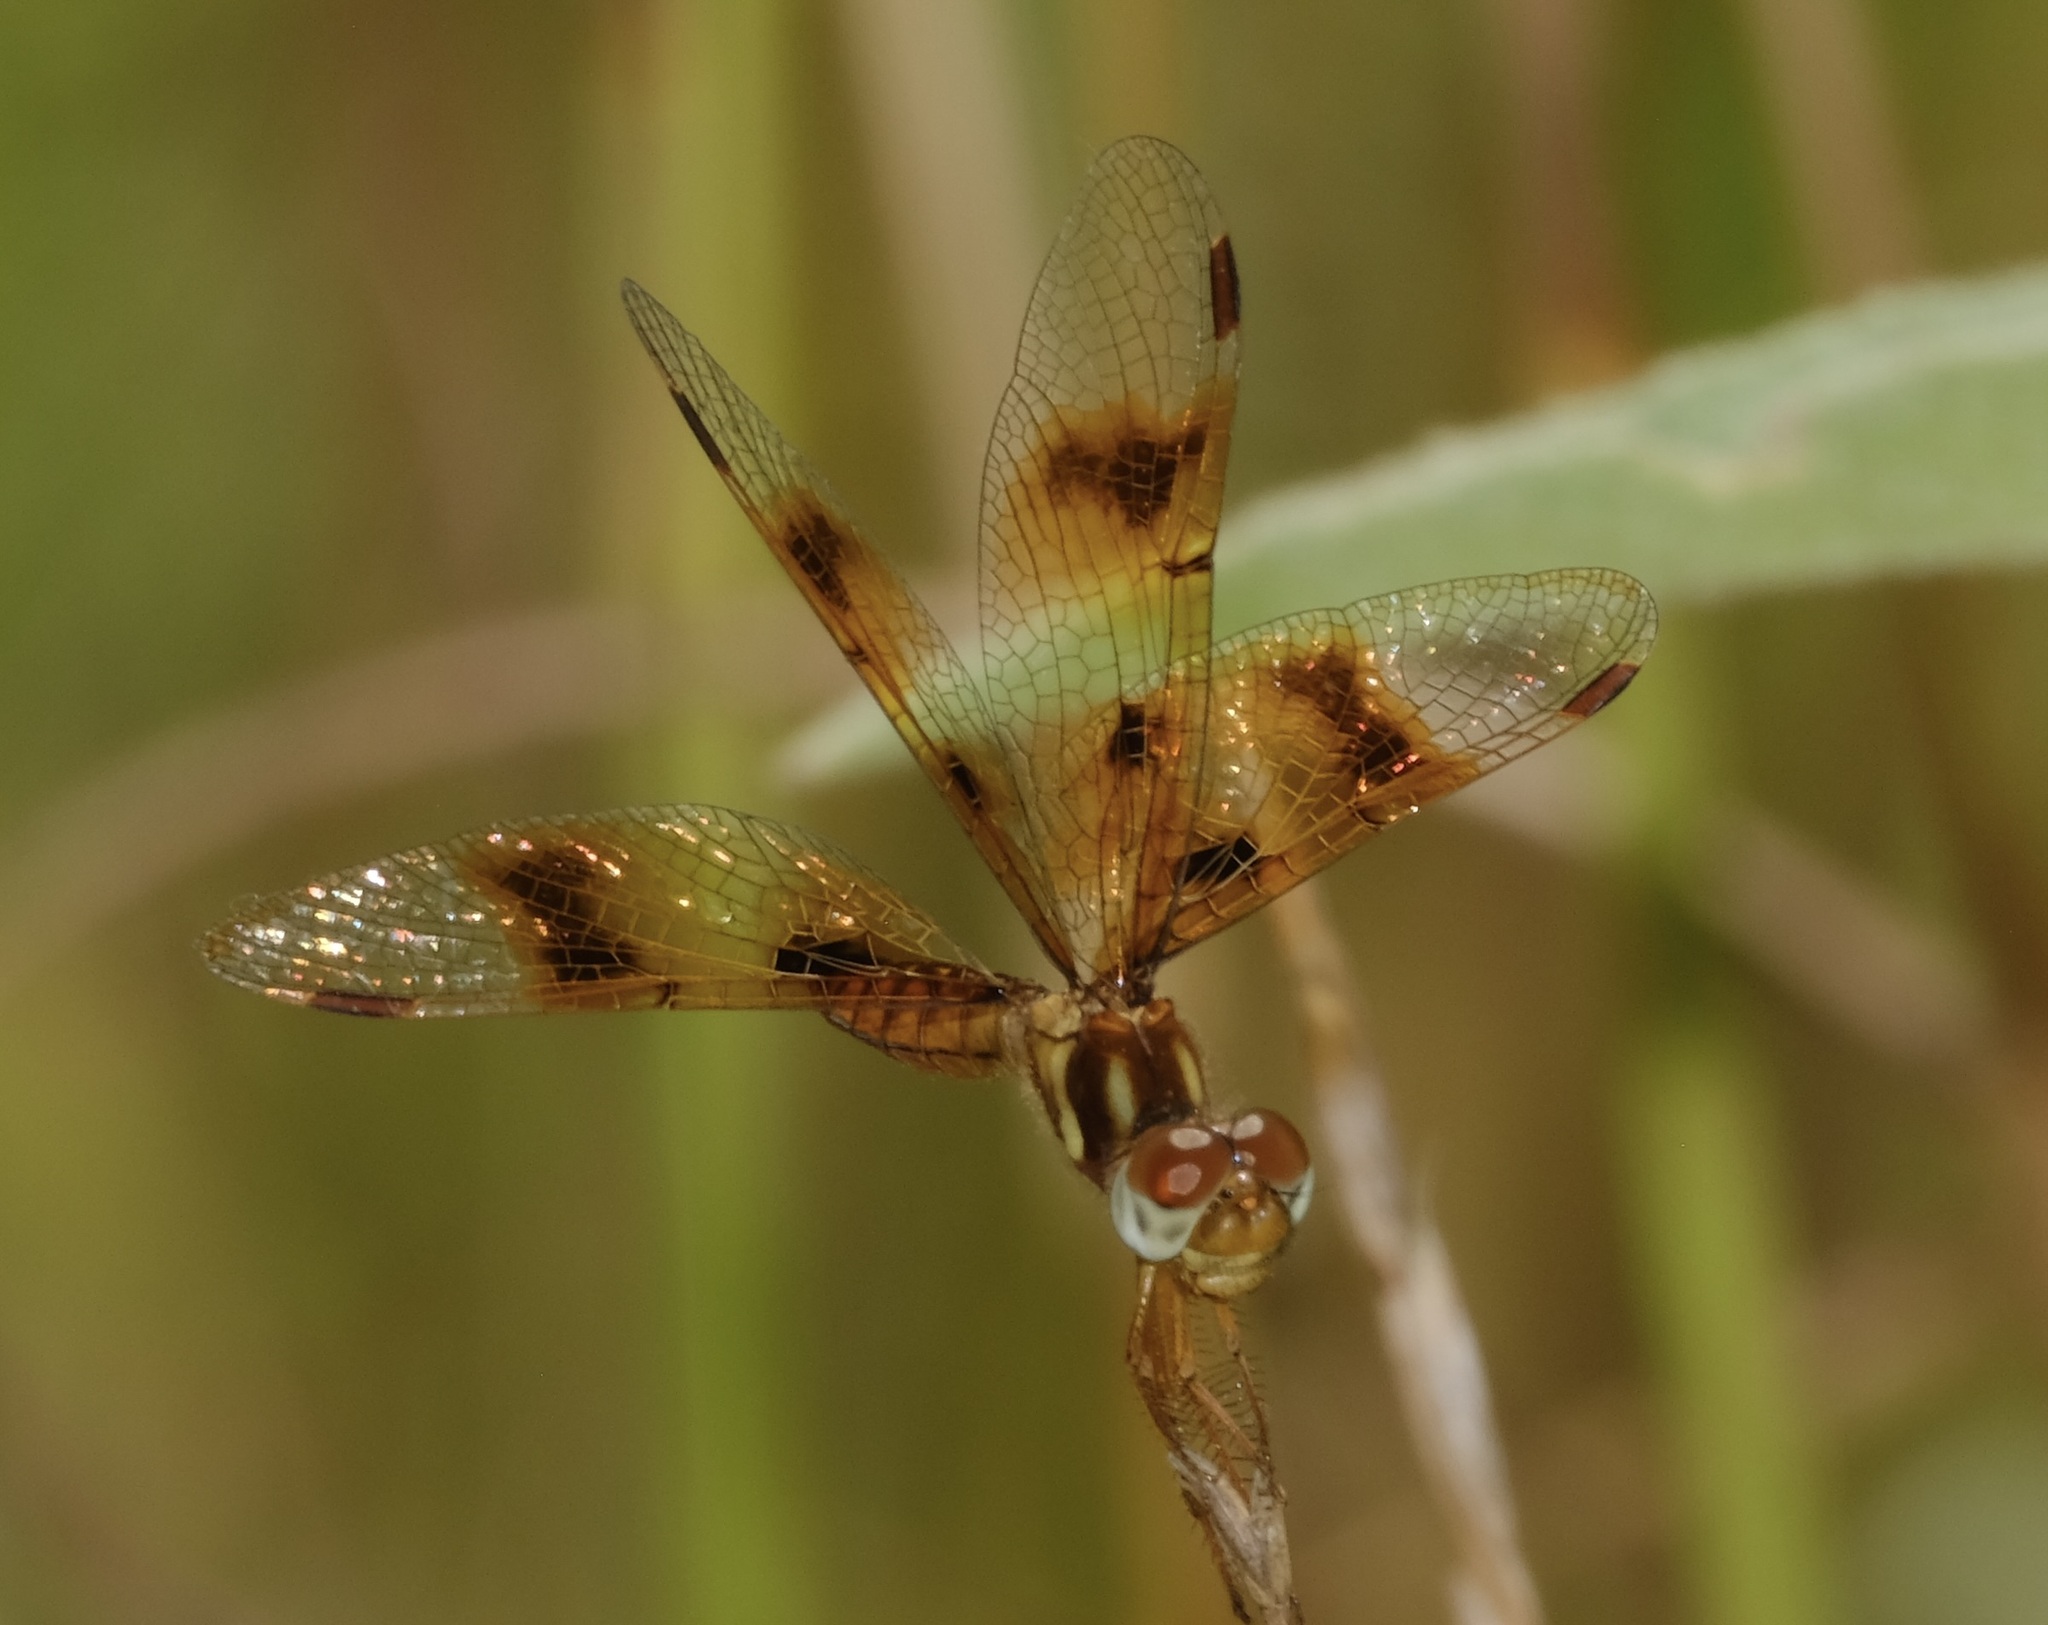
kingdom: Animalia
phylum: Arthropoda
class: Insecta
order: Odonata
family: Libellulidae
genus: Perithemis
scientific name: Perithemis tenera
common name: Eastern amberwing
